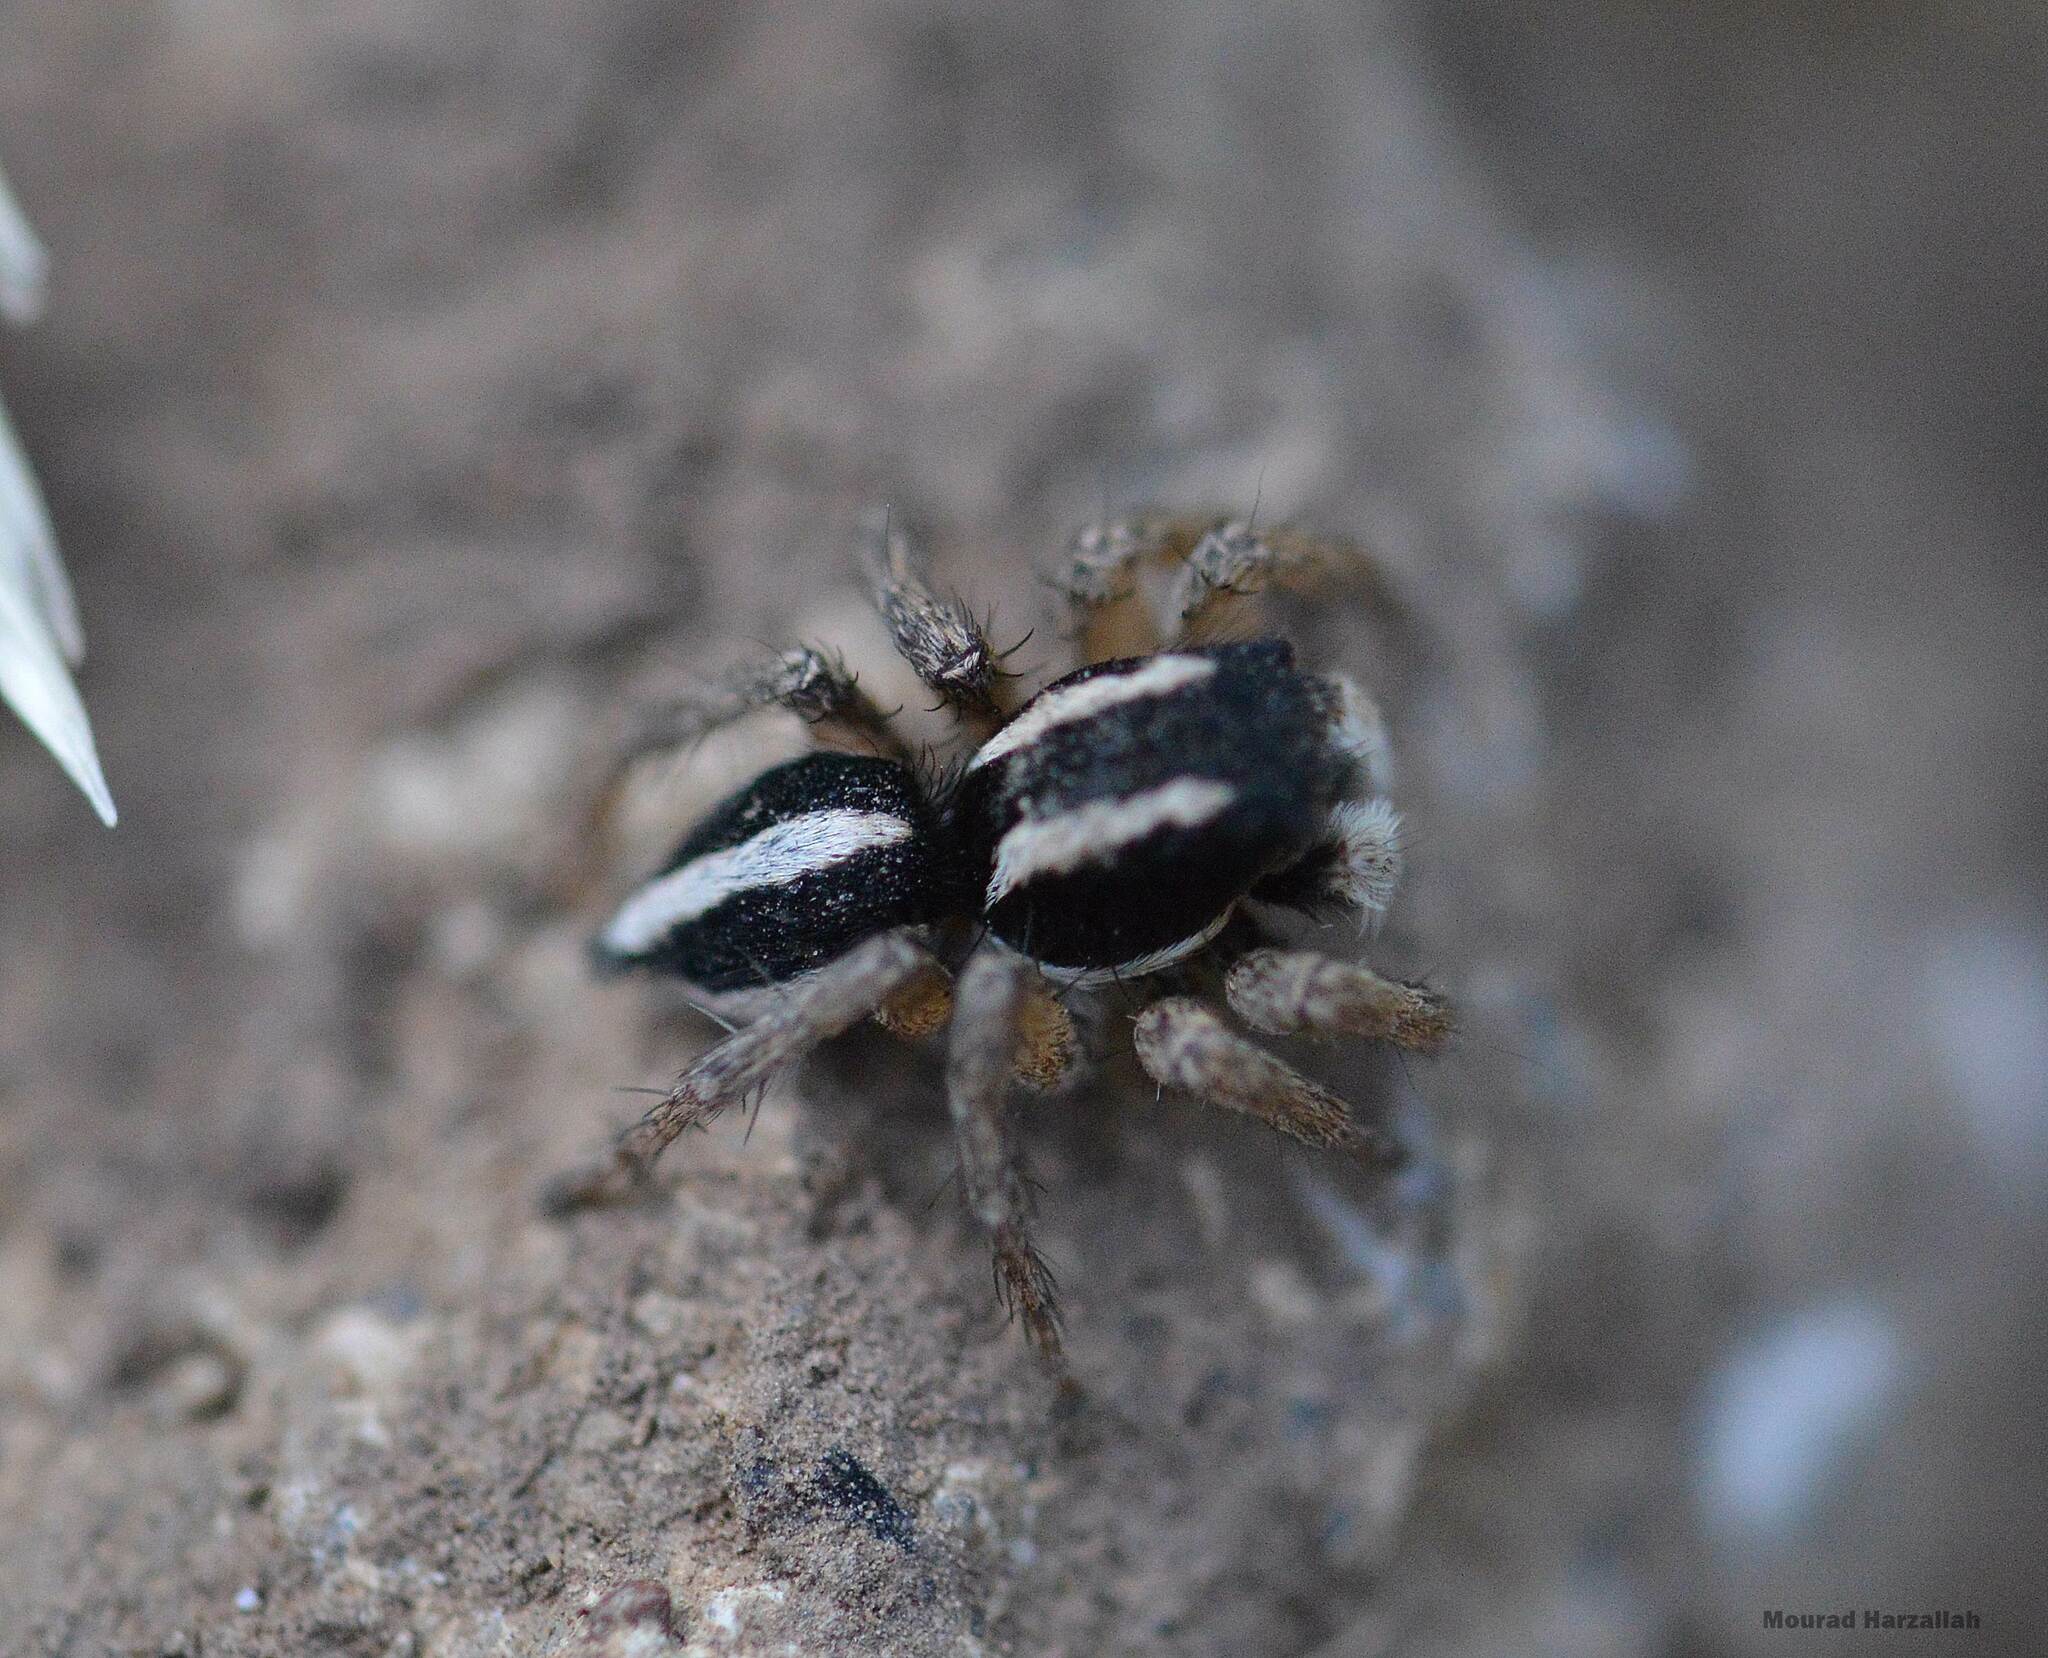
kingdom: Animalia
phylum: Arthropoda
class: Arachnida
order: Araneae
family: Salticidae
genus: Aelurillus
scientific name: Aelurillus luctuosus
